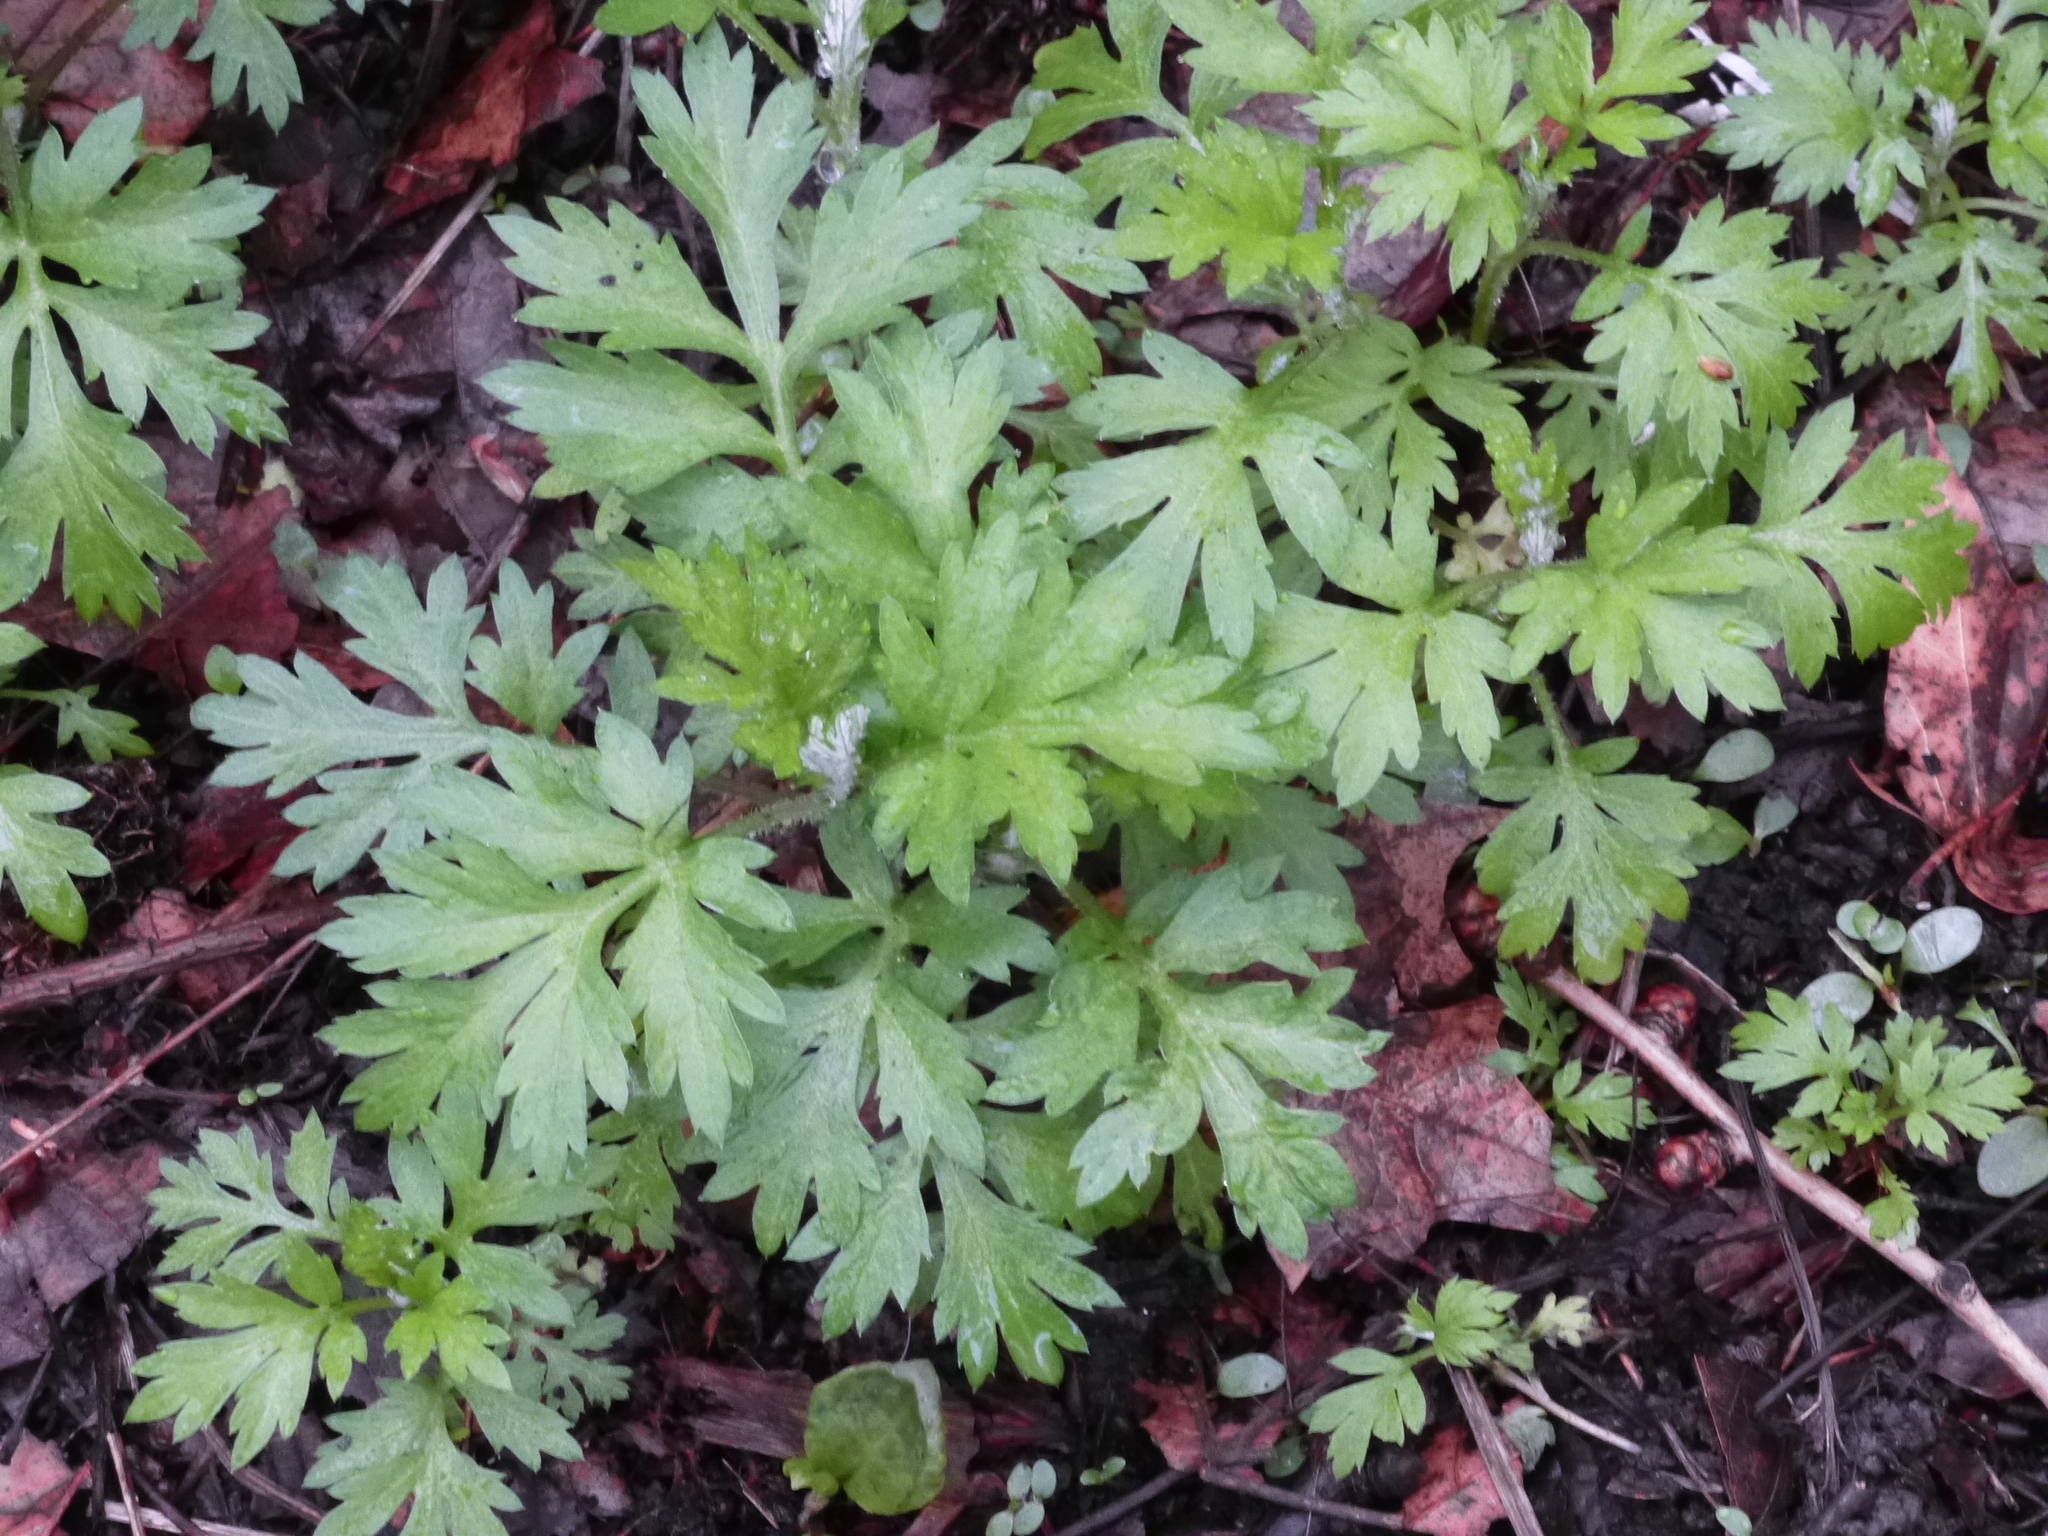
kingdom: Plantae
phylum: Tracheophyta
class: Magnoliopsida
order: Asterales
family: Asteraceae
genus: Artemisia
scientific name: Artemisia vulgaris
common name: Mugwort
